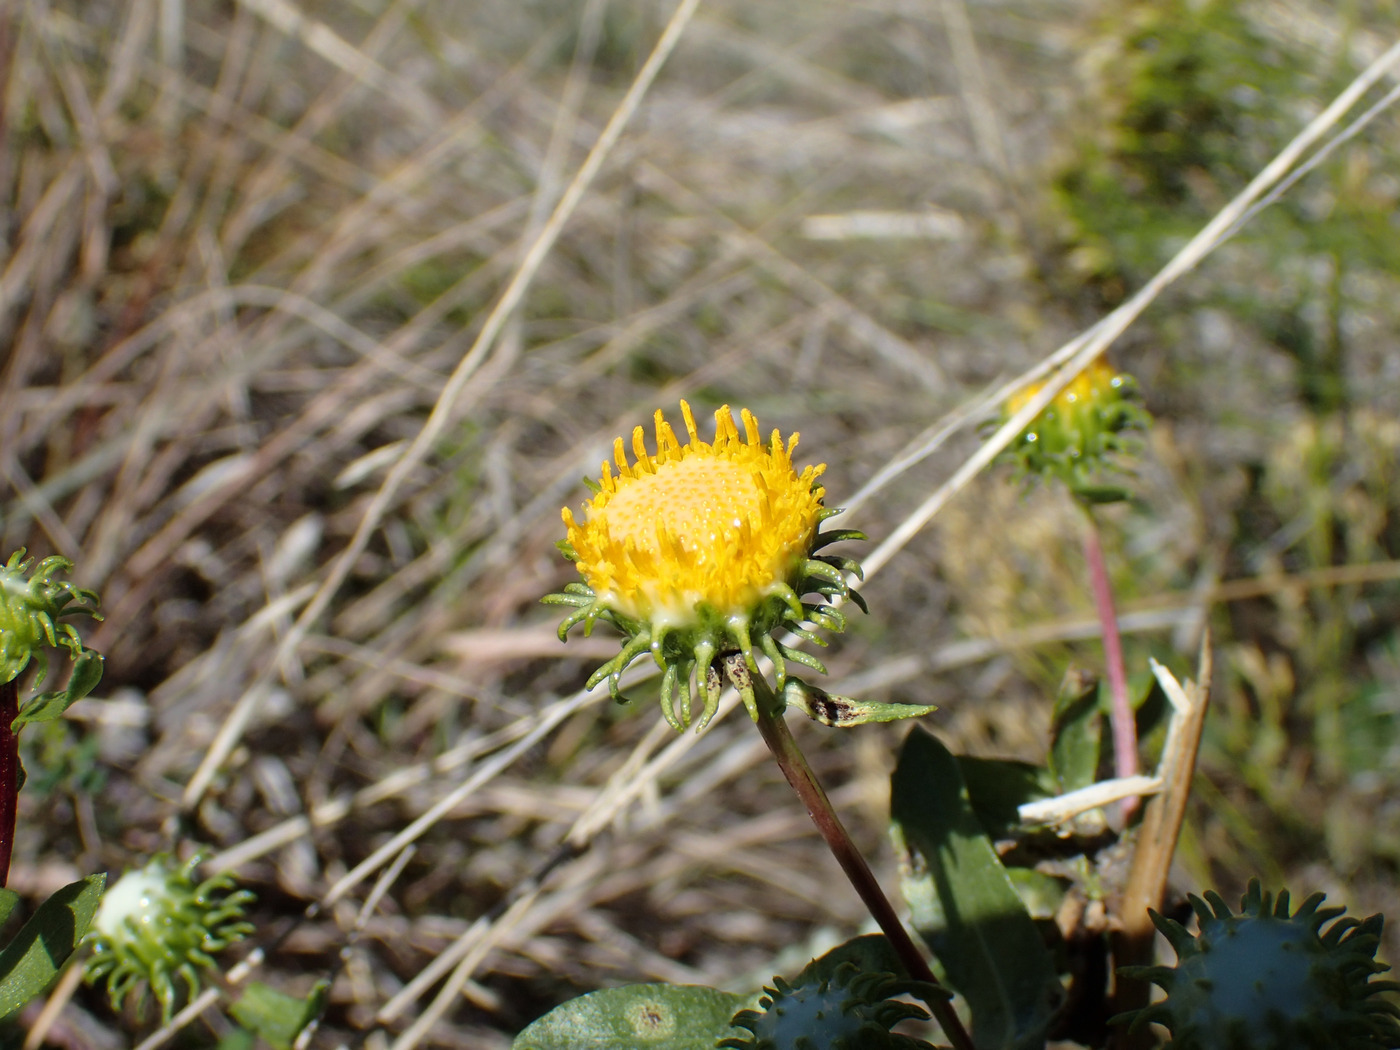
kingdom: Plantae
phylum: Tracheophyta
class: Magnoliopsida
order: Asterales
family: Asteraceae
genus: Grindelia
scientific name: Grindelia nuda
